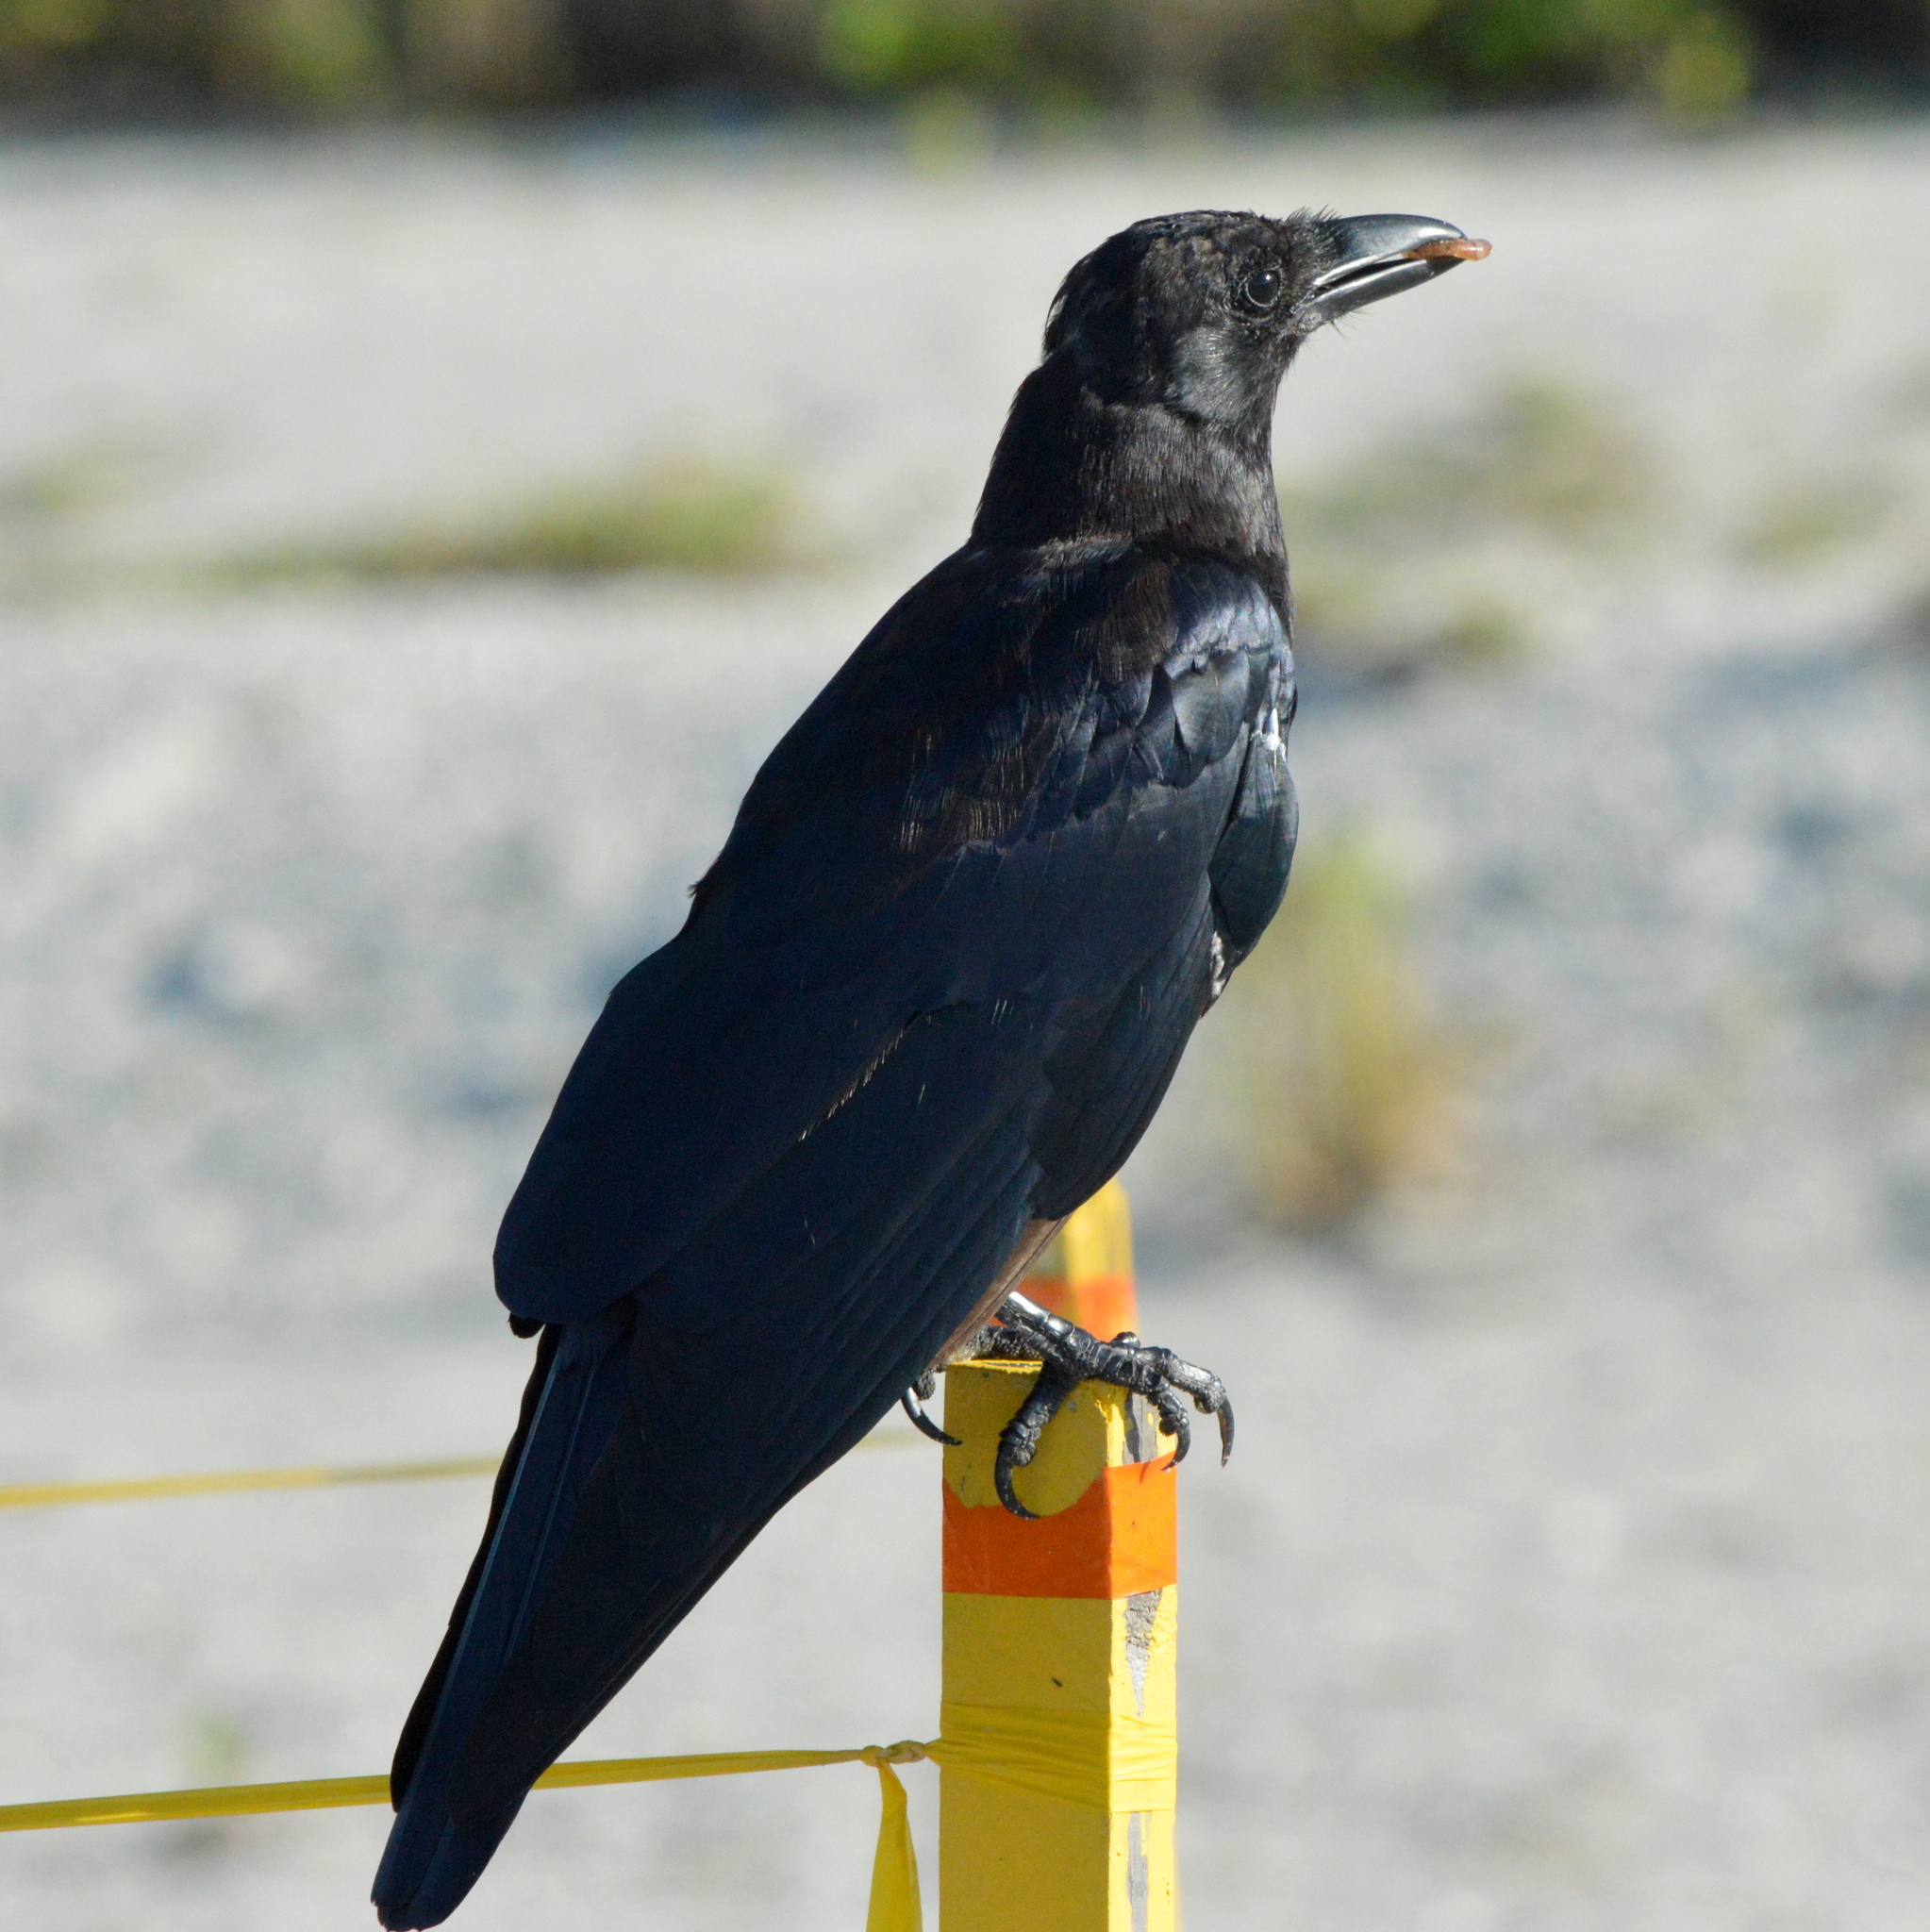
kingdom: Animalia
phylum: Chordata
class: Aves
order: Passeriformes
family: Corvidae
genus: Corvus
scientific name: Corvus ossifragus
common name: Fish crow
